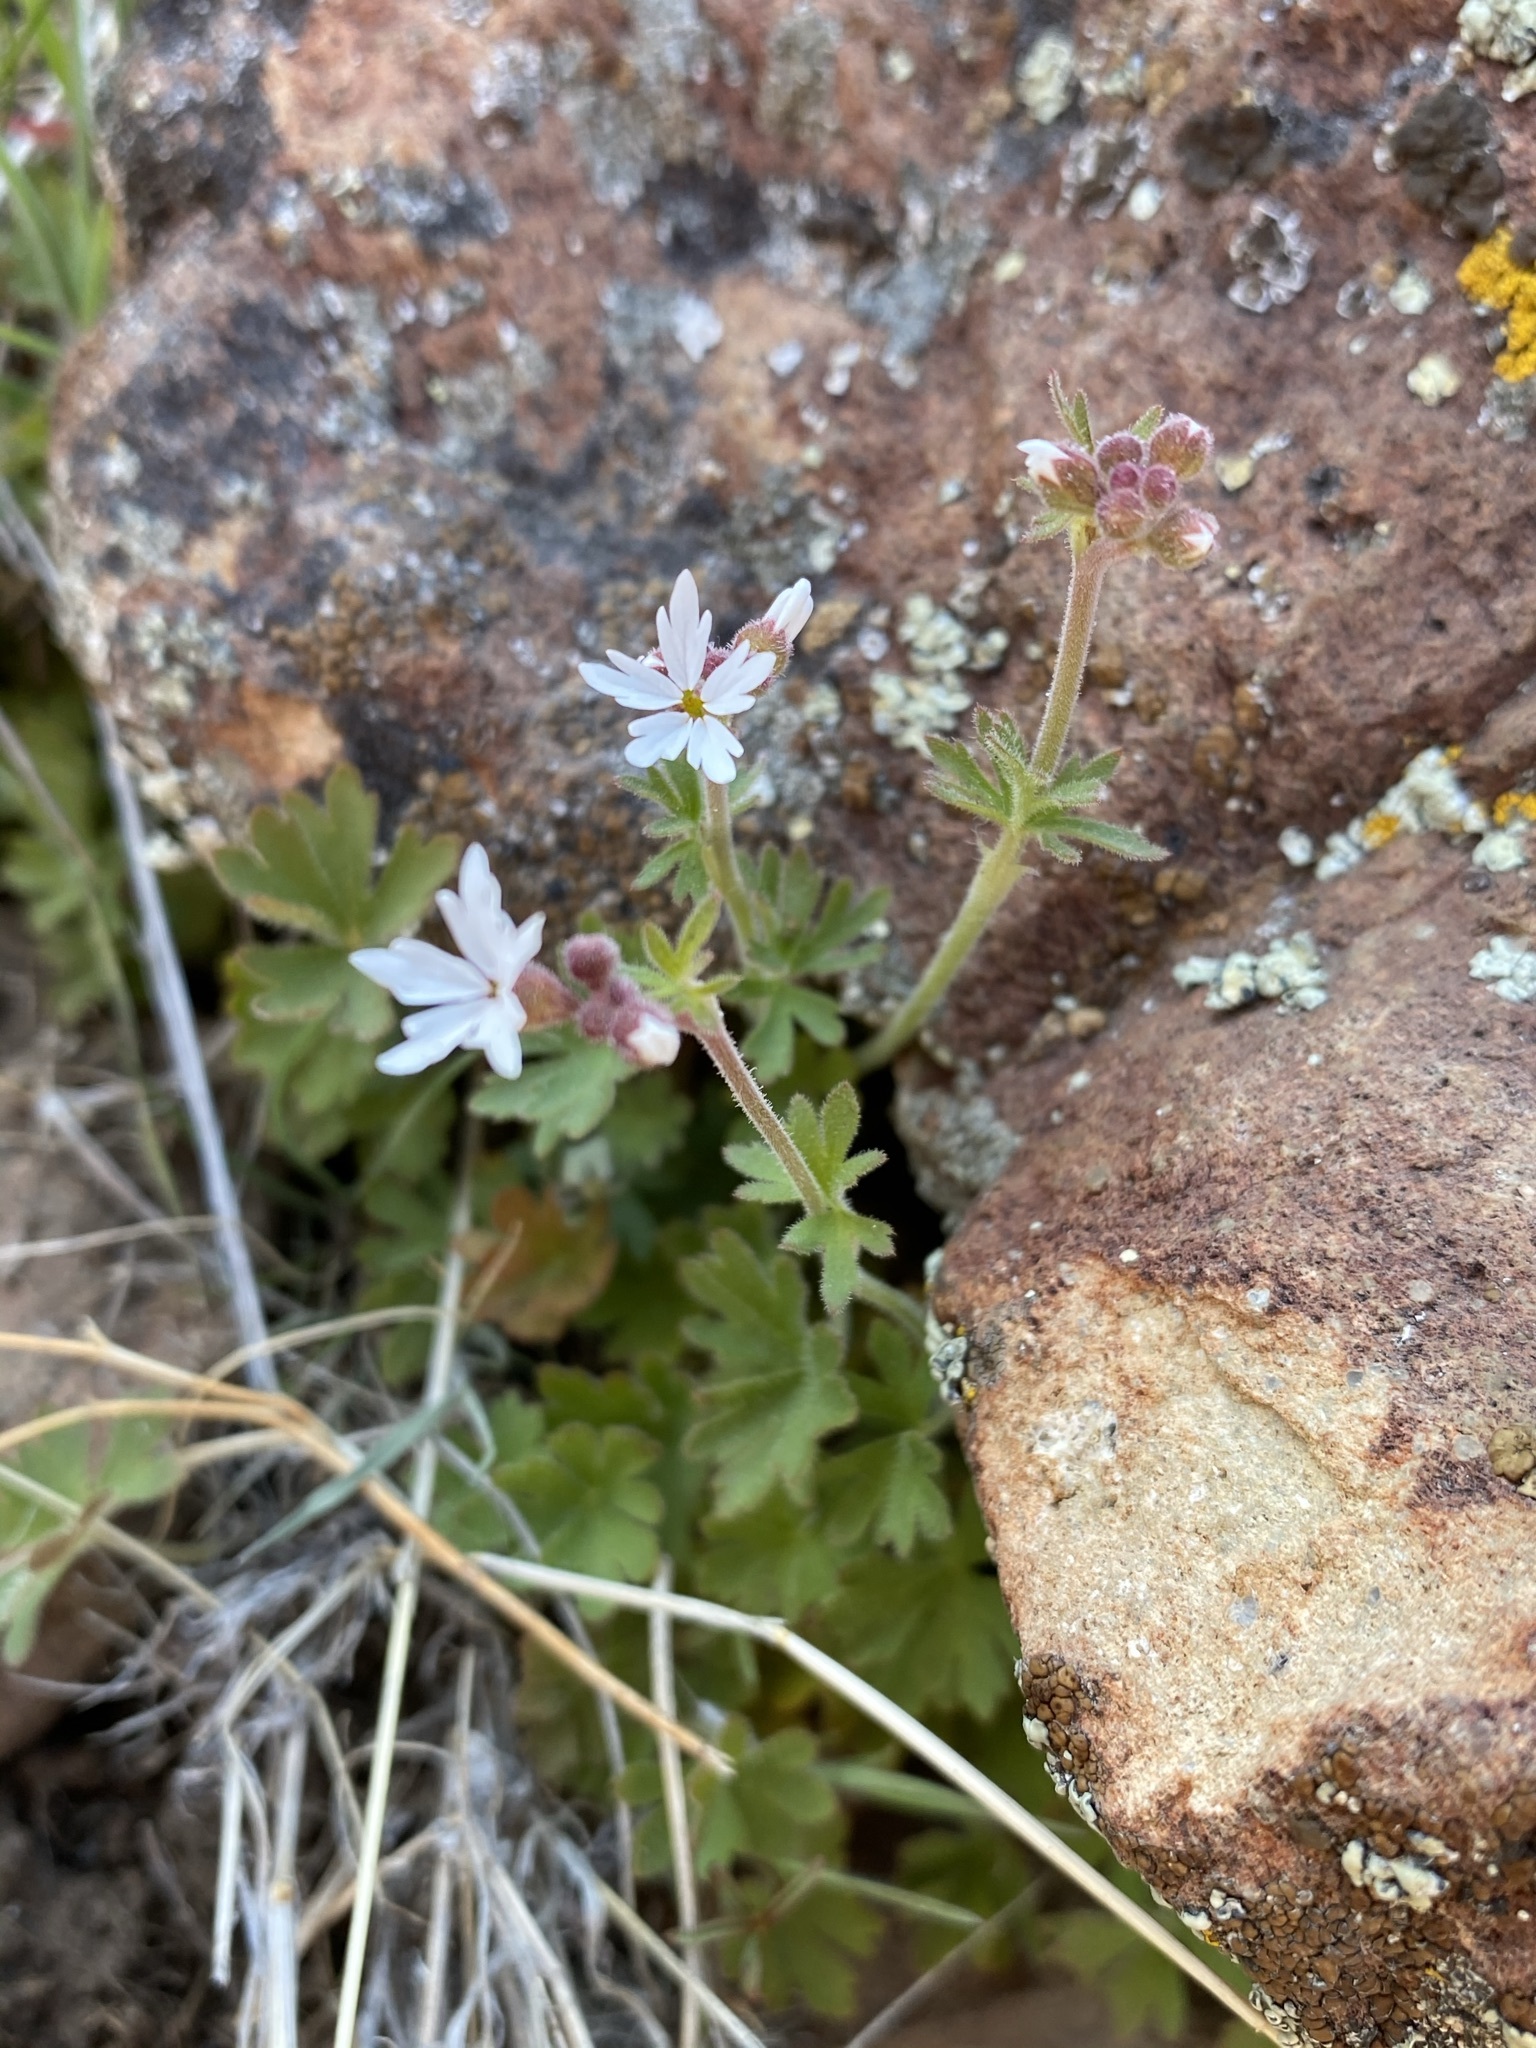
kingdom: Plantae
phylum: Tracheophyta
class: Magnoliopsida
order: Saxifragales
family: Saxifragaceae
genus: Lithophragma
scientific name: Lithophragma parviflorum
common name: Small-flowered fringe-cup
